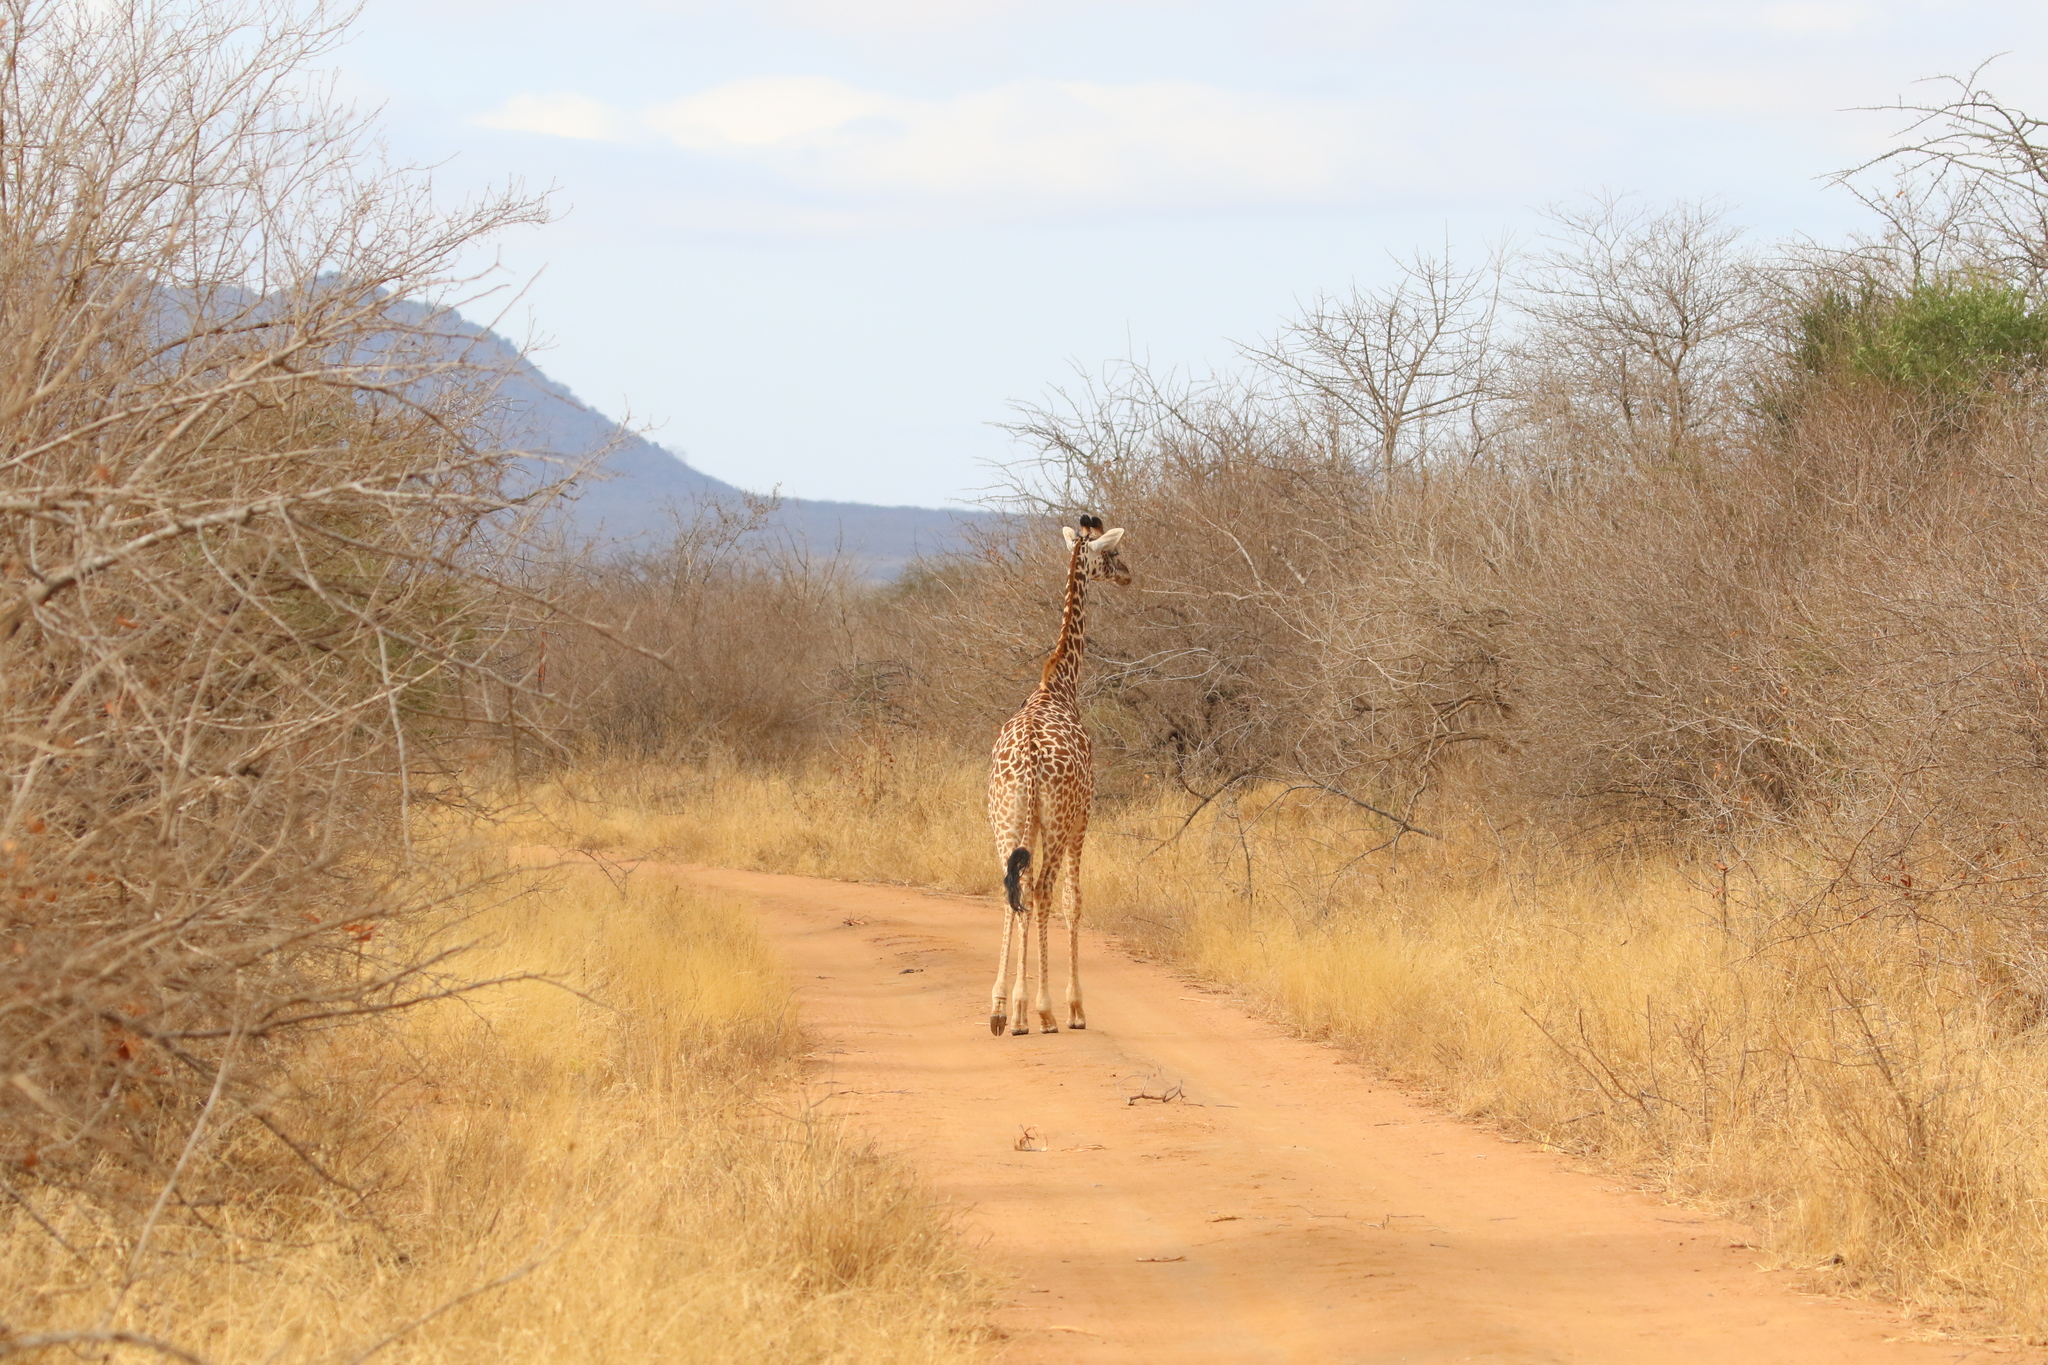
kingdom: Animalia
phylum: Chordata
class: Mammalia
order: Artiodactyla
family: Giraffidae
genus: Giraffa
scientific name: Giraffa tippelskirchi
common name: Masai giraffe
